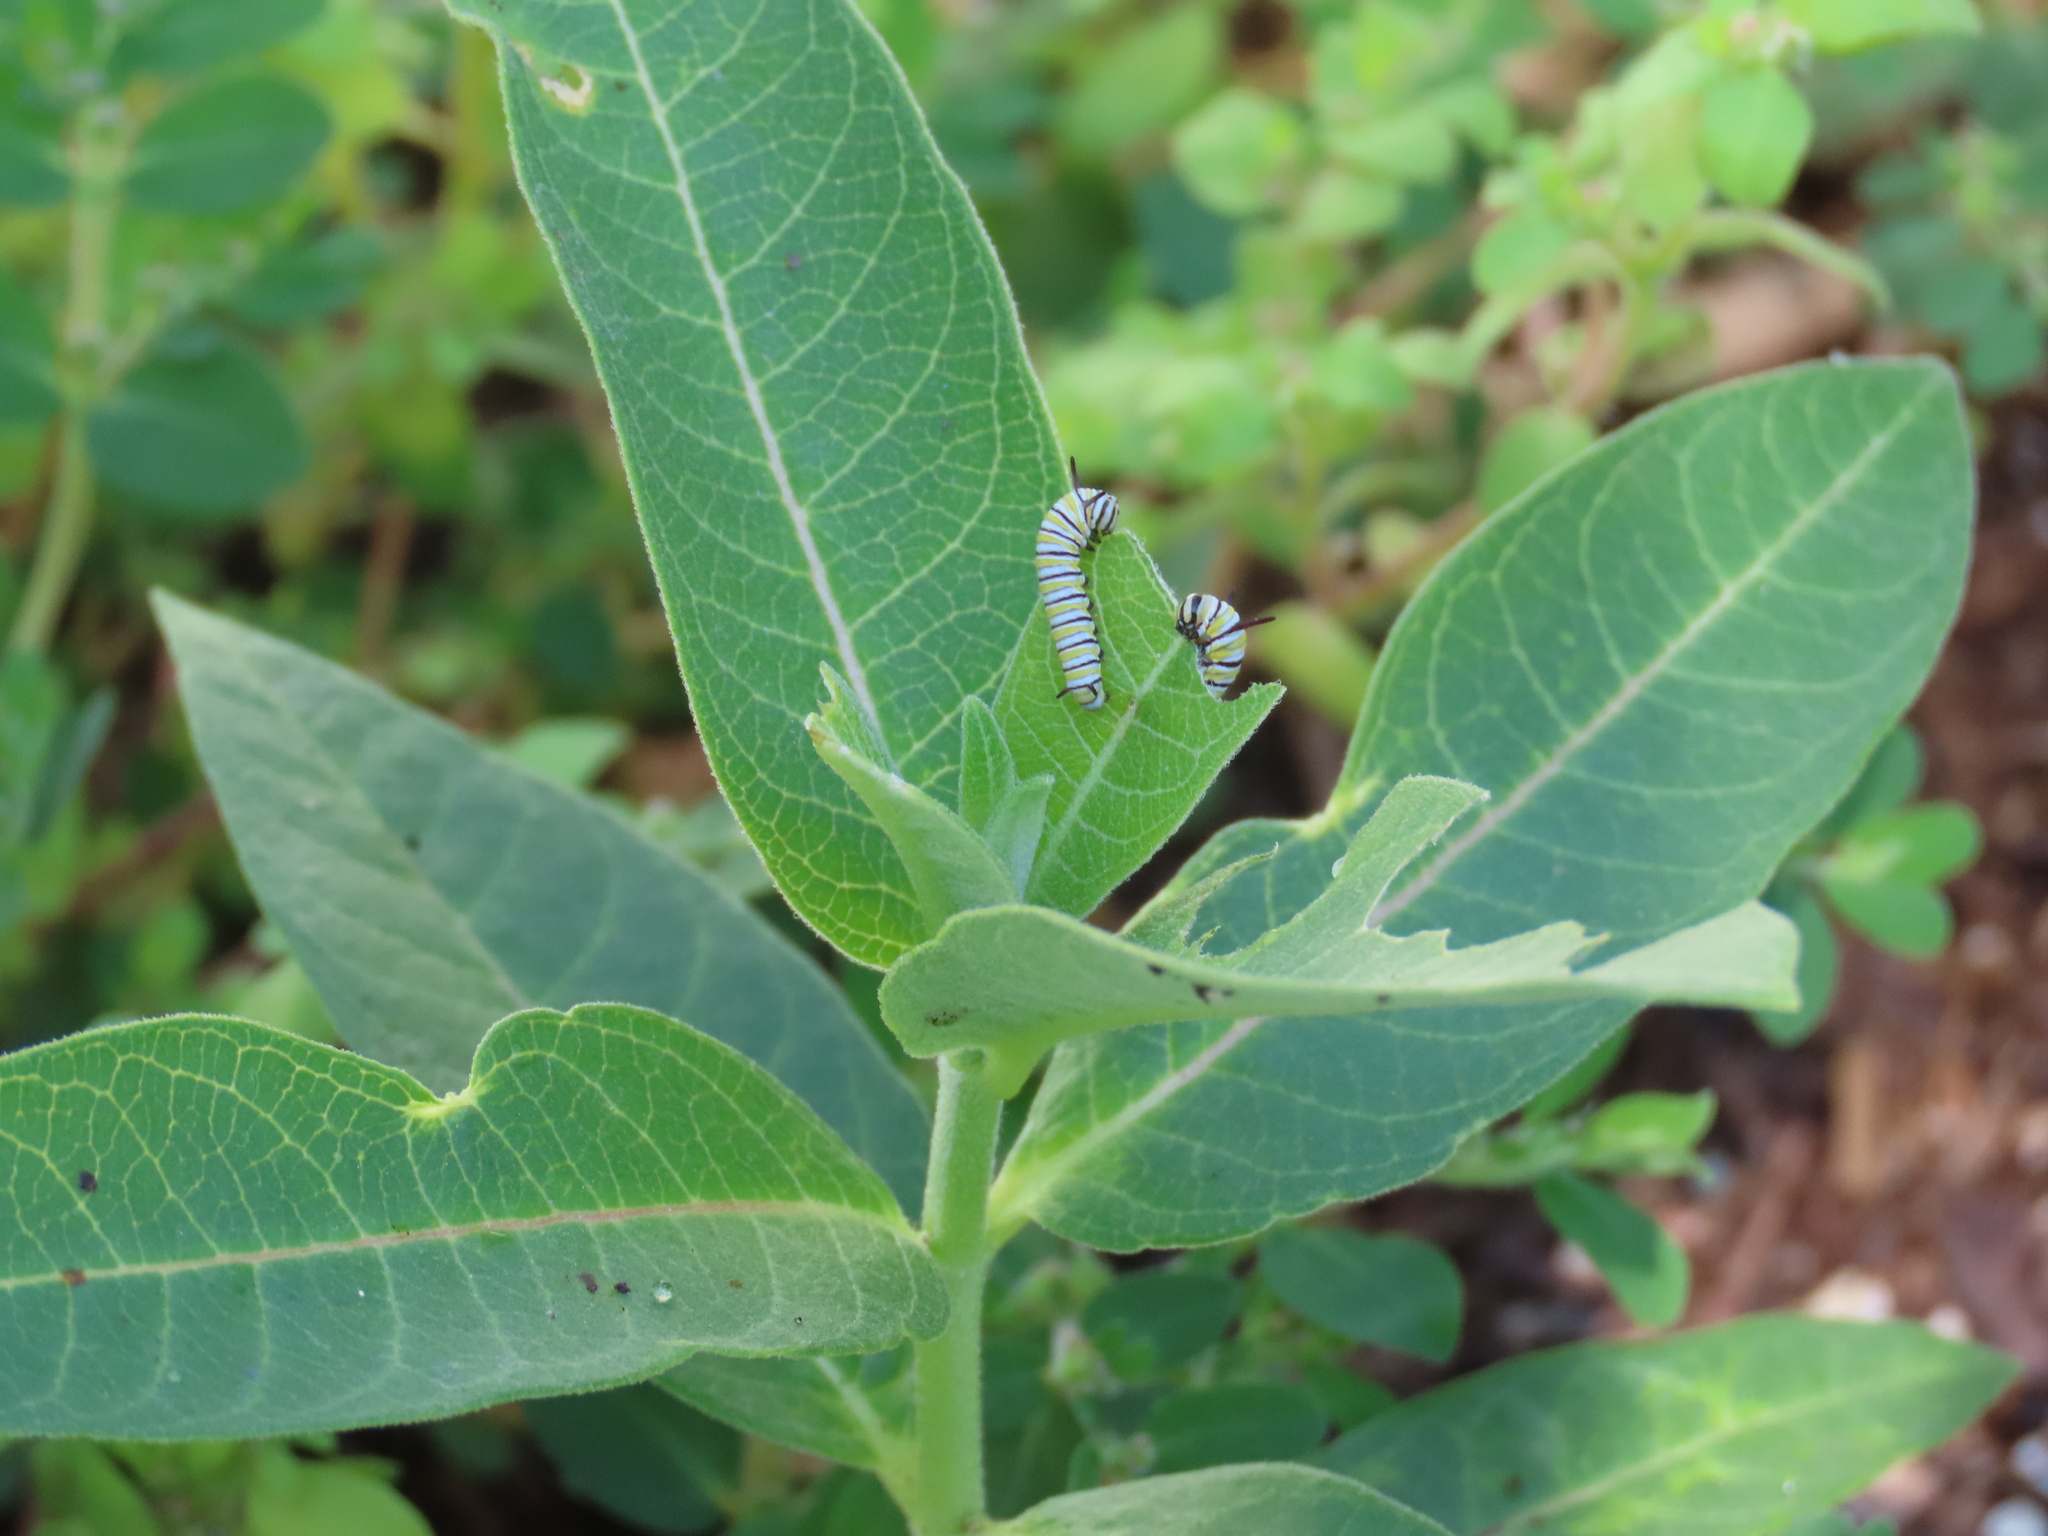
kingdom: Animalia
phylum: Arthropoda
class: Insecta
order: Lepidoptera
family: Nymphalidae
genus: Danaus
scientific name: Danaus plexippus
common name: Monarch
